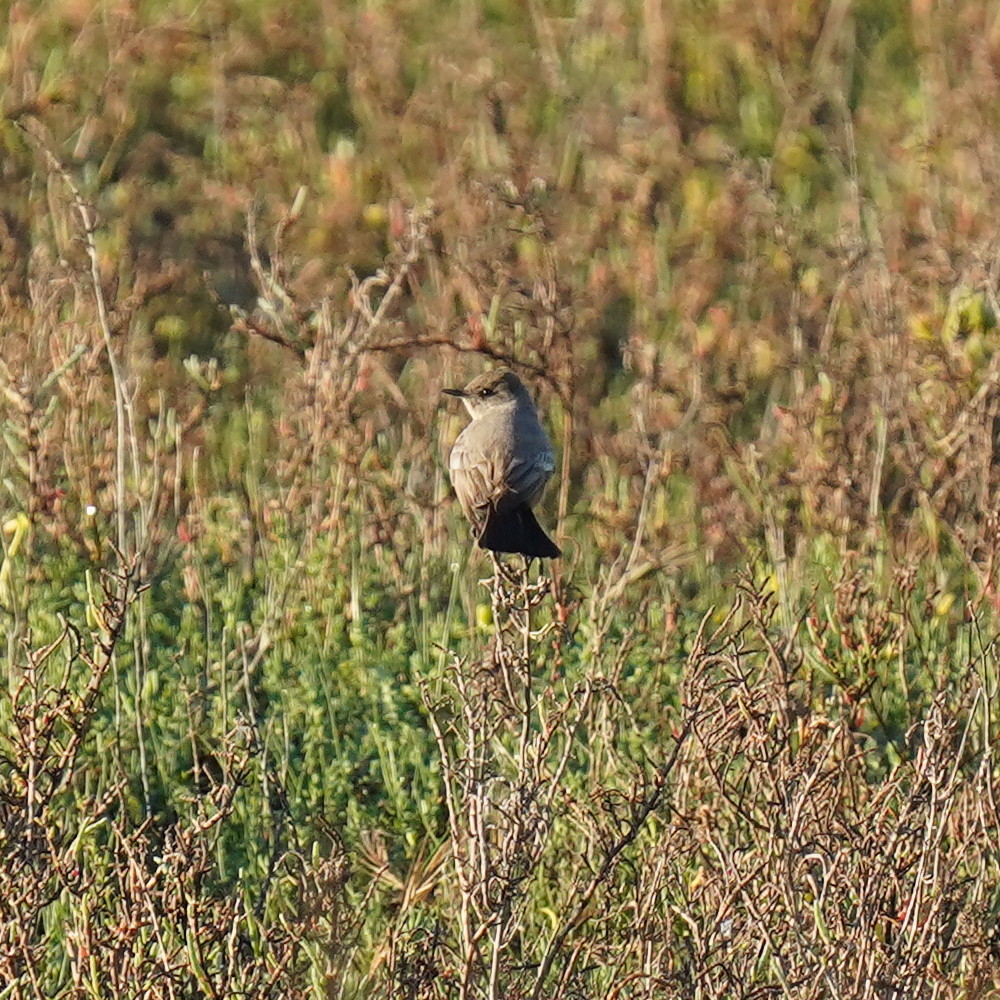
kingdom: Animalia
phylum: Chordata
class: Aves
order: Passeriformes
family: Tyrannidae
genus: Sayornis
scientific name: Sayornis saya
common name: Say's phoebe
